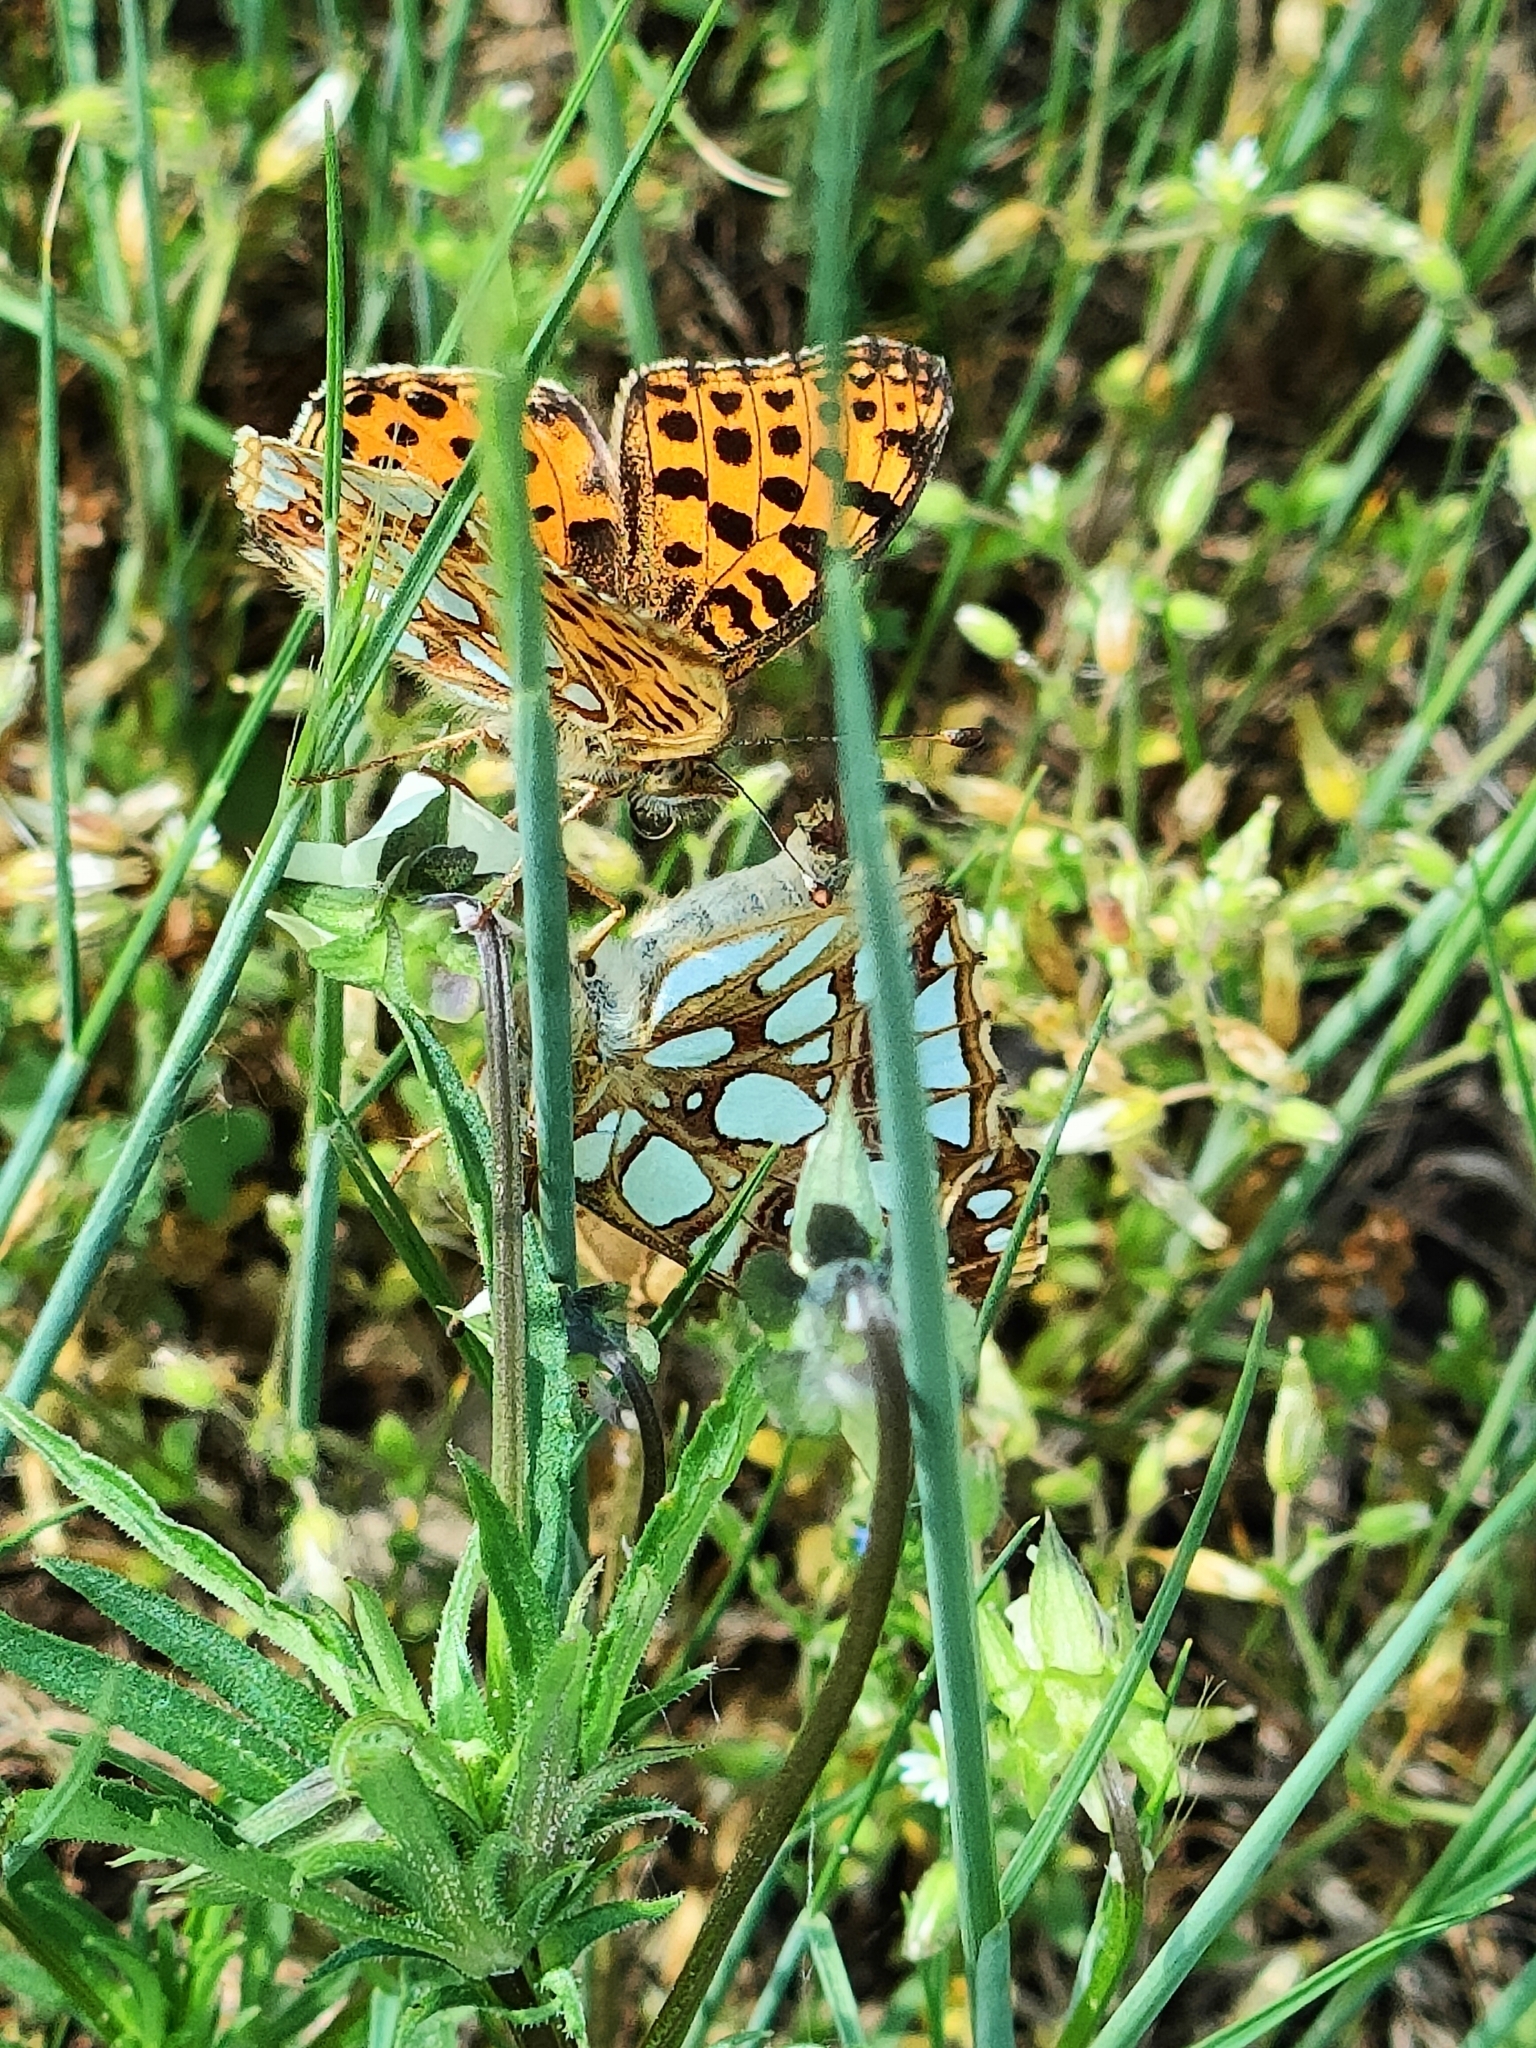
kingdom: Animalia
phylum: Arthropoda
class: Insecta
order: Lepidoptera
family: Nymphalidae
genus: Issoria
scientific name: Issoria lathonia
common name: Queen of spain fritillary
